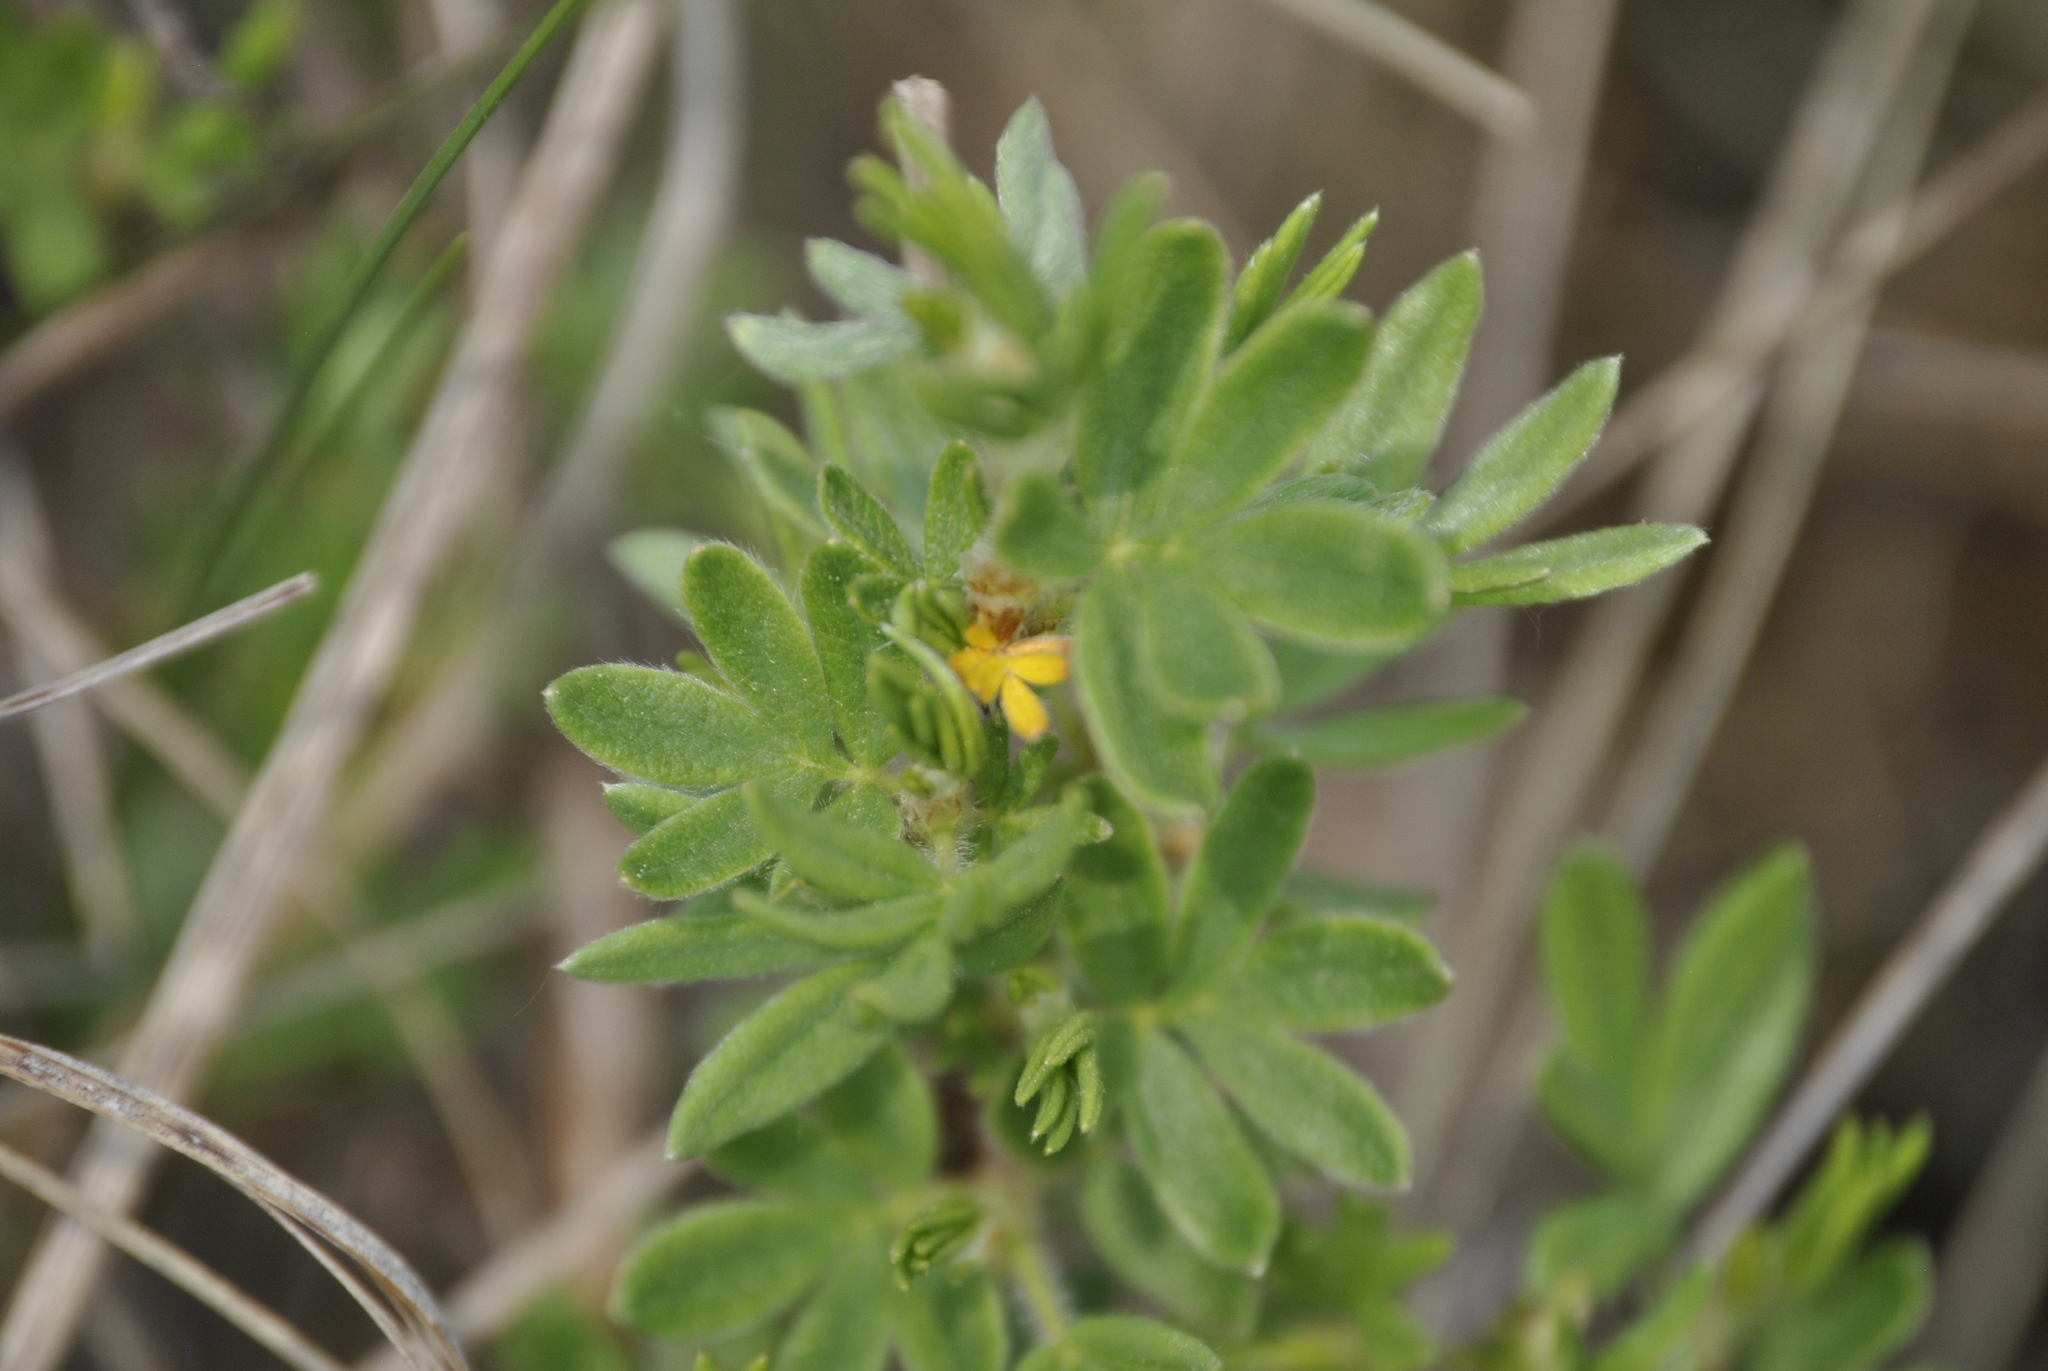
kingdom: Plantae
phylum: Tracheophyta
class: Magnoliopsida
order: Rosales
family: Rosaceae
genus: Dasiphora
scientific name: Dasiphora fruticosa
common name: Shrubby cinquefoil
